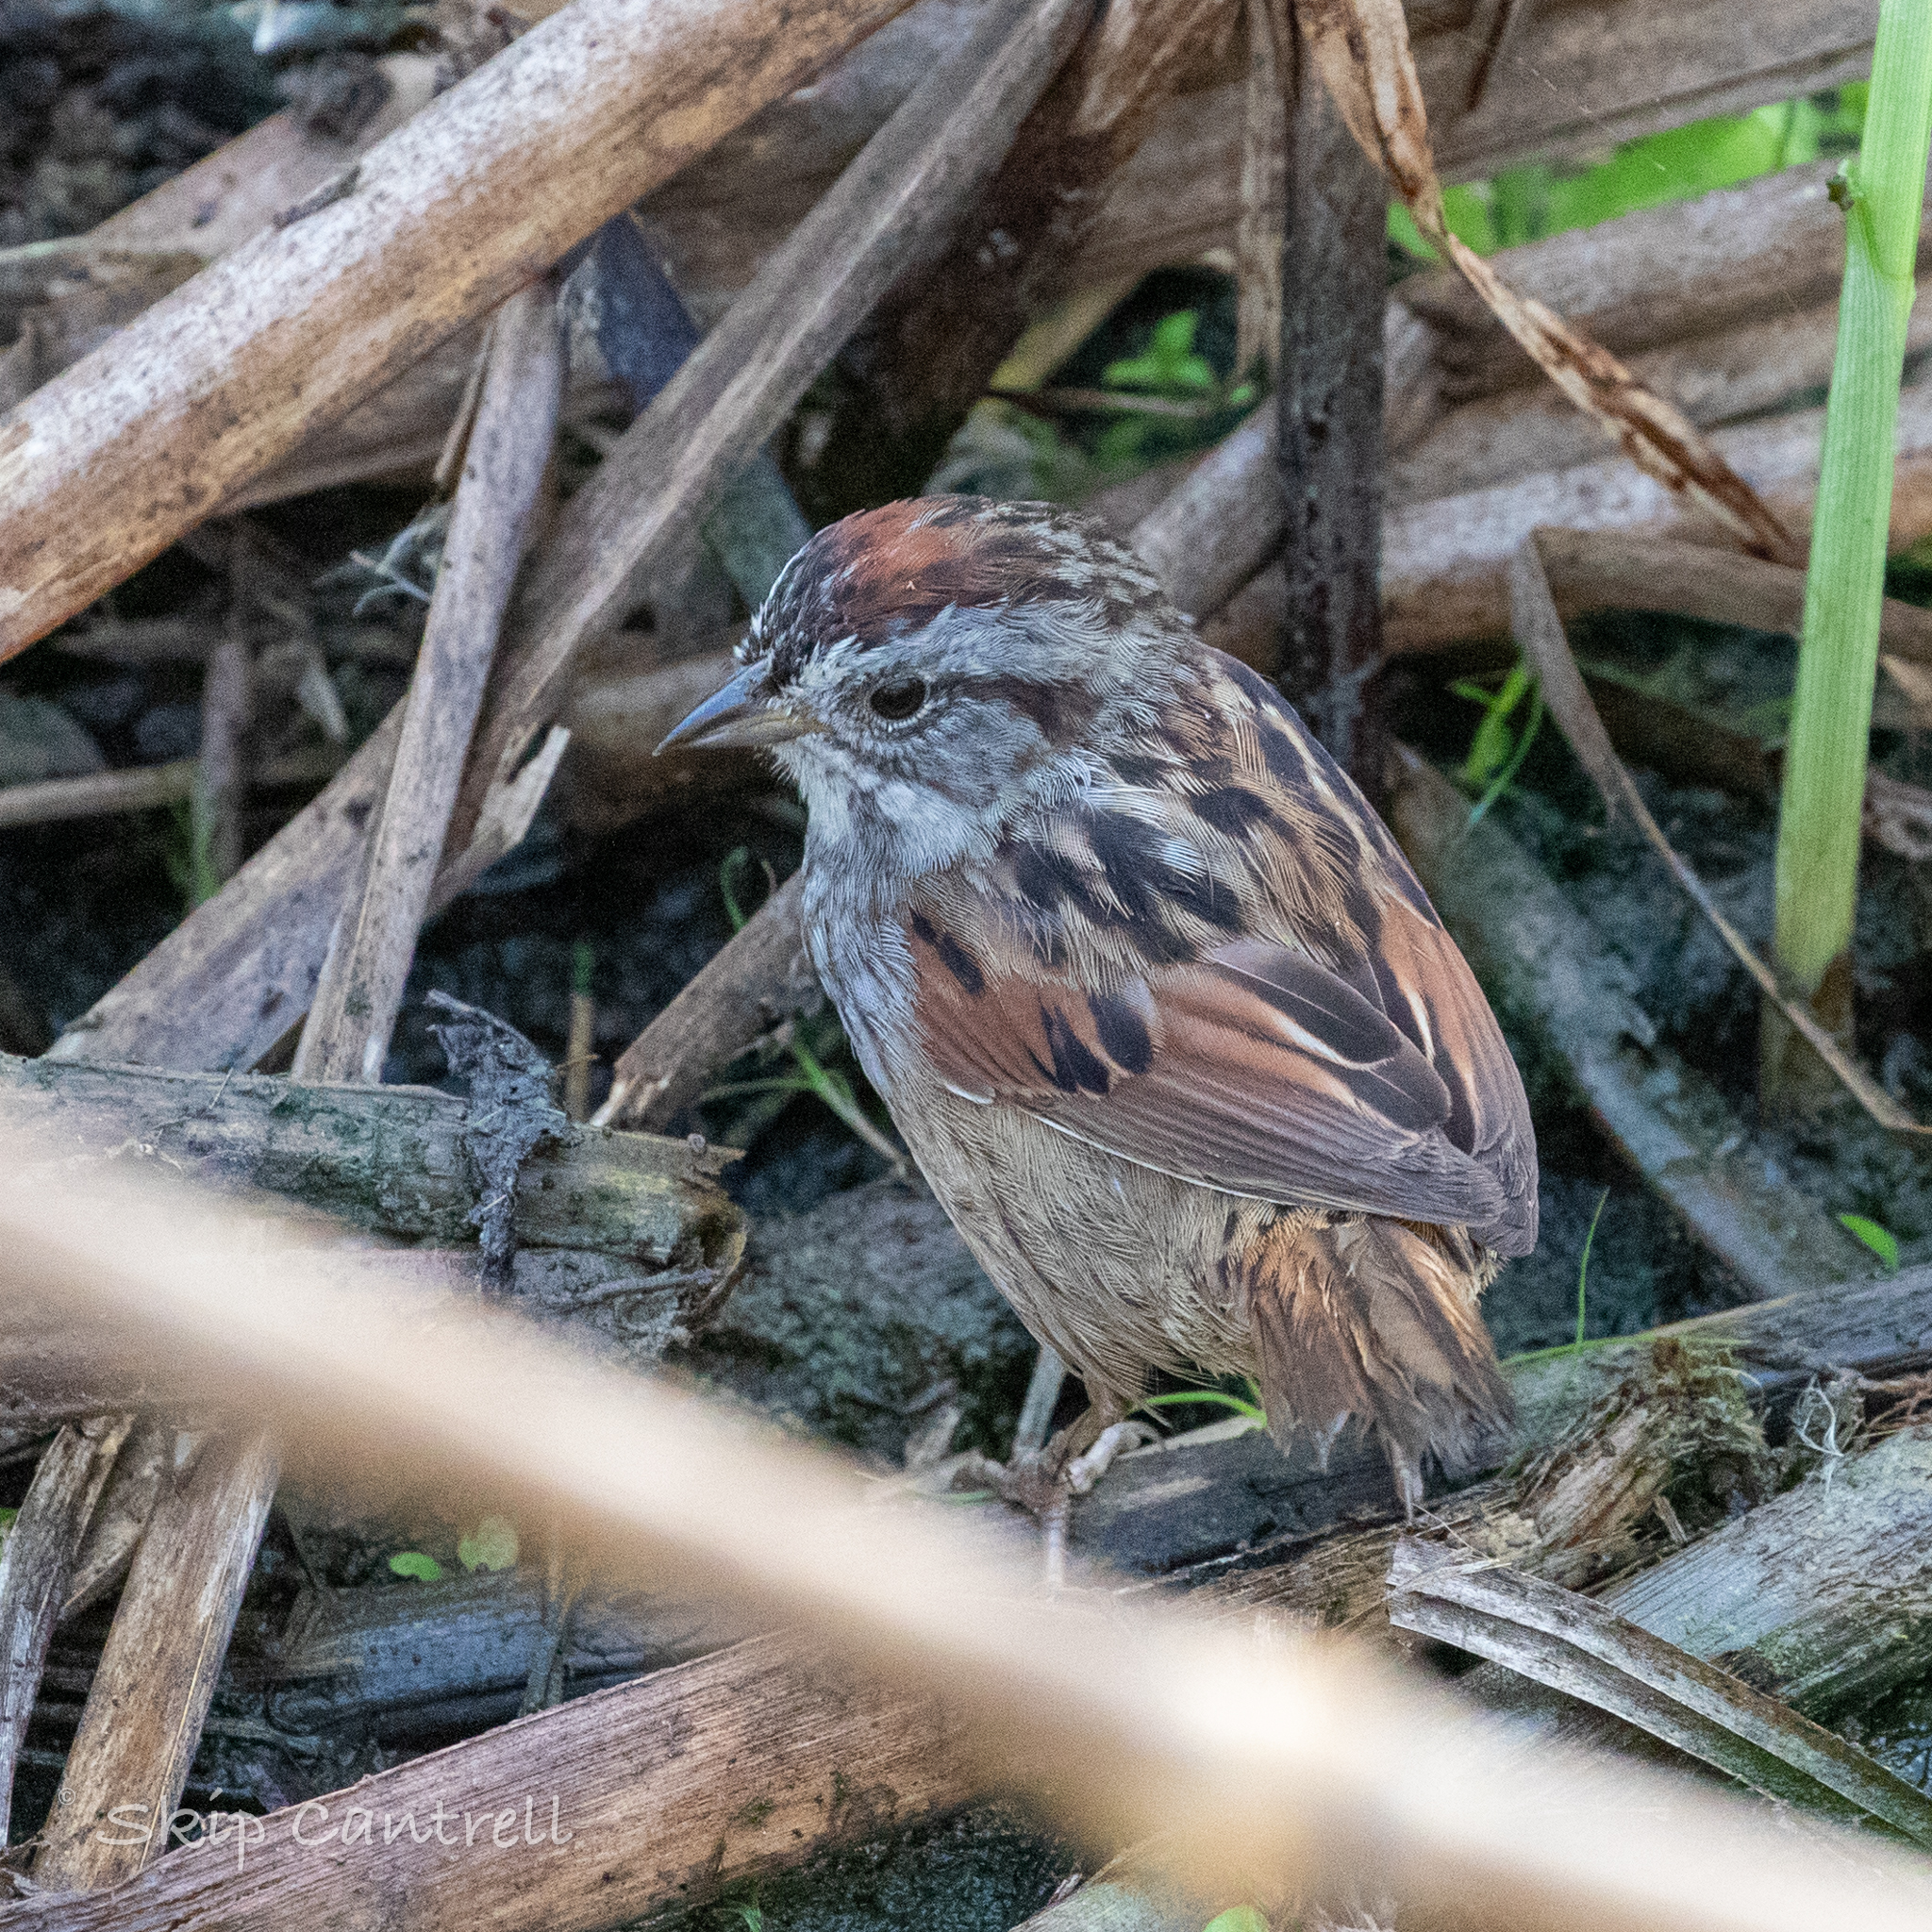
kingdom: Animalia
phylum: Chordata
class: Aves
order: Passeriformes
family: Passerellidae
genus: Melospiza
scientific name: Melospiza georgiana
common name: Swamp sparrow
